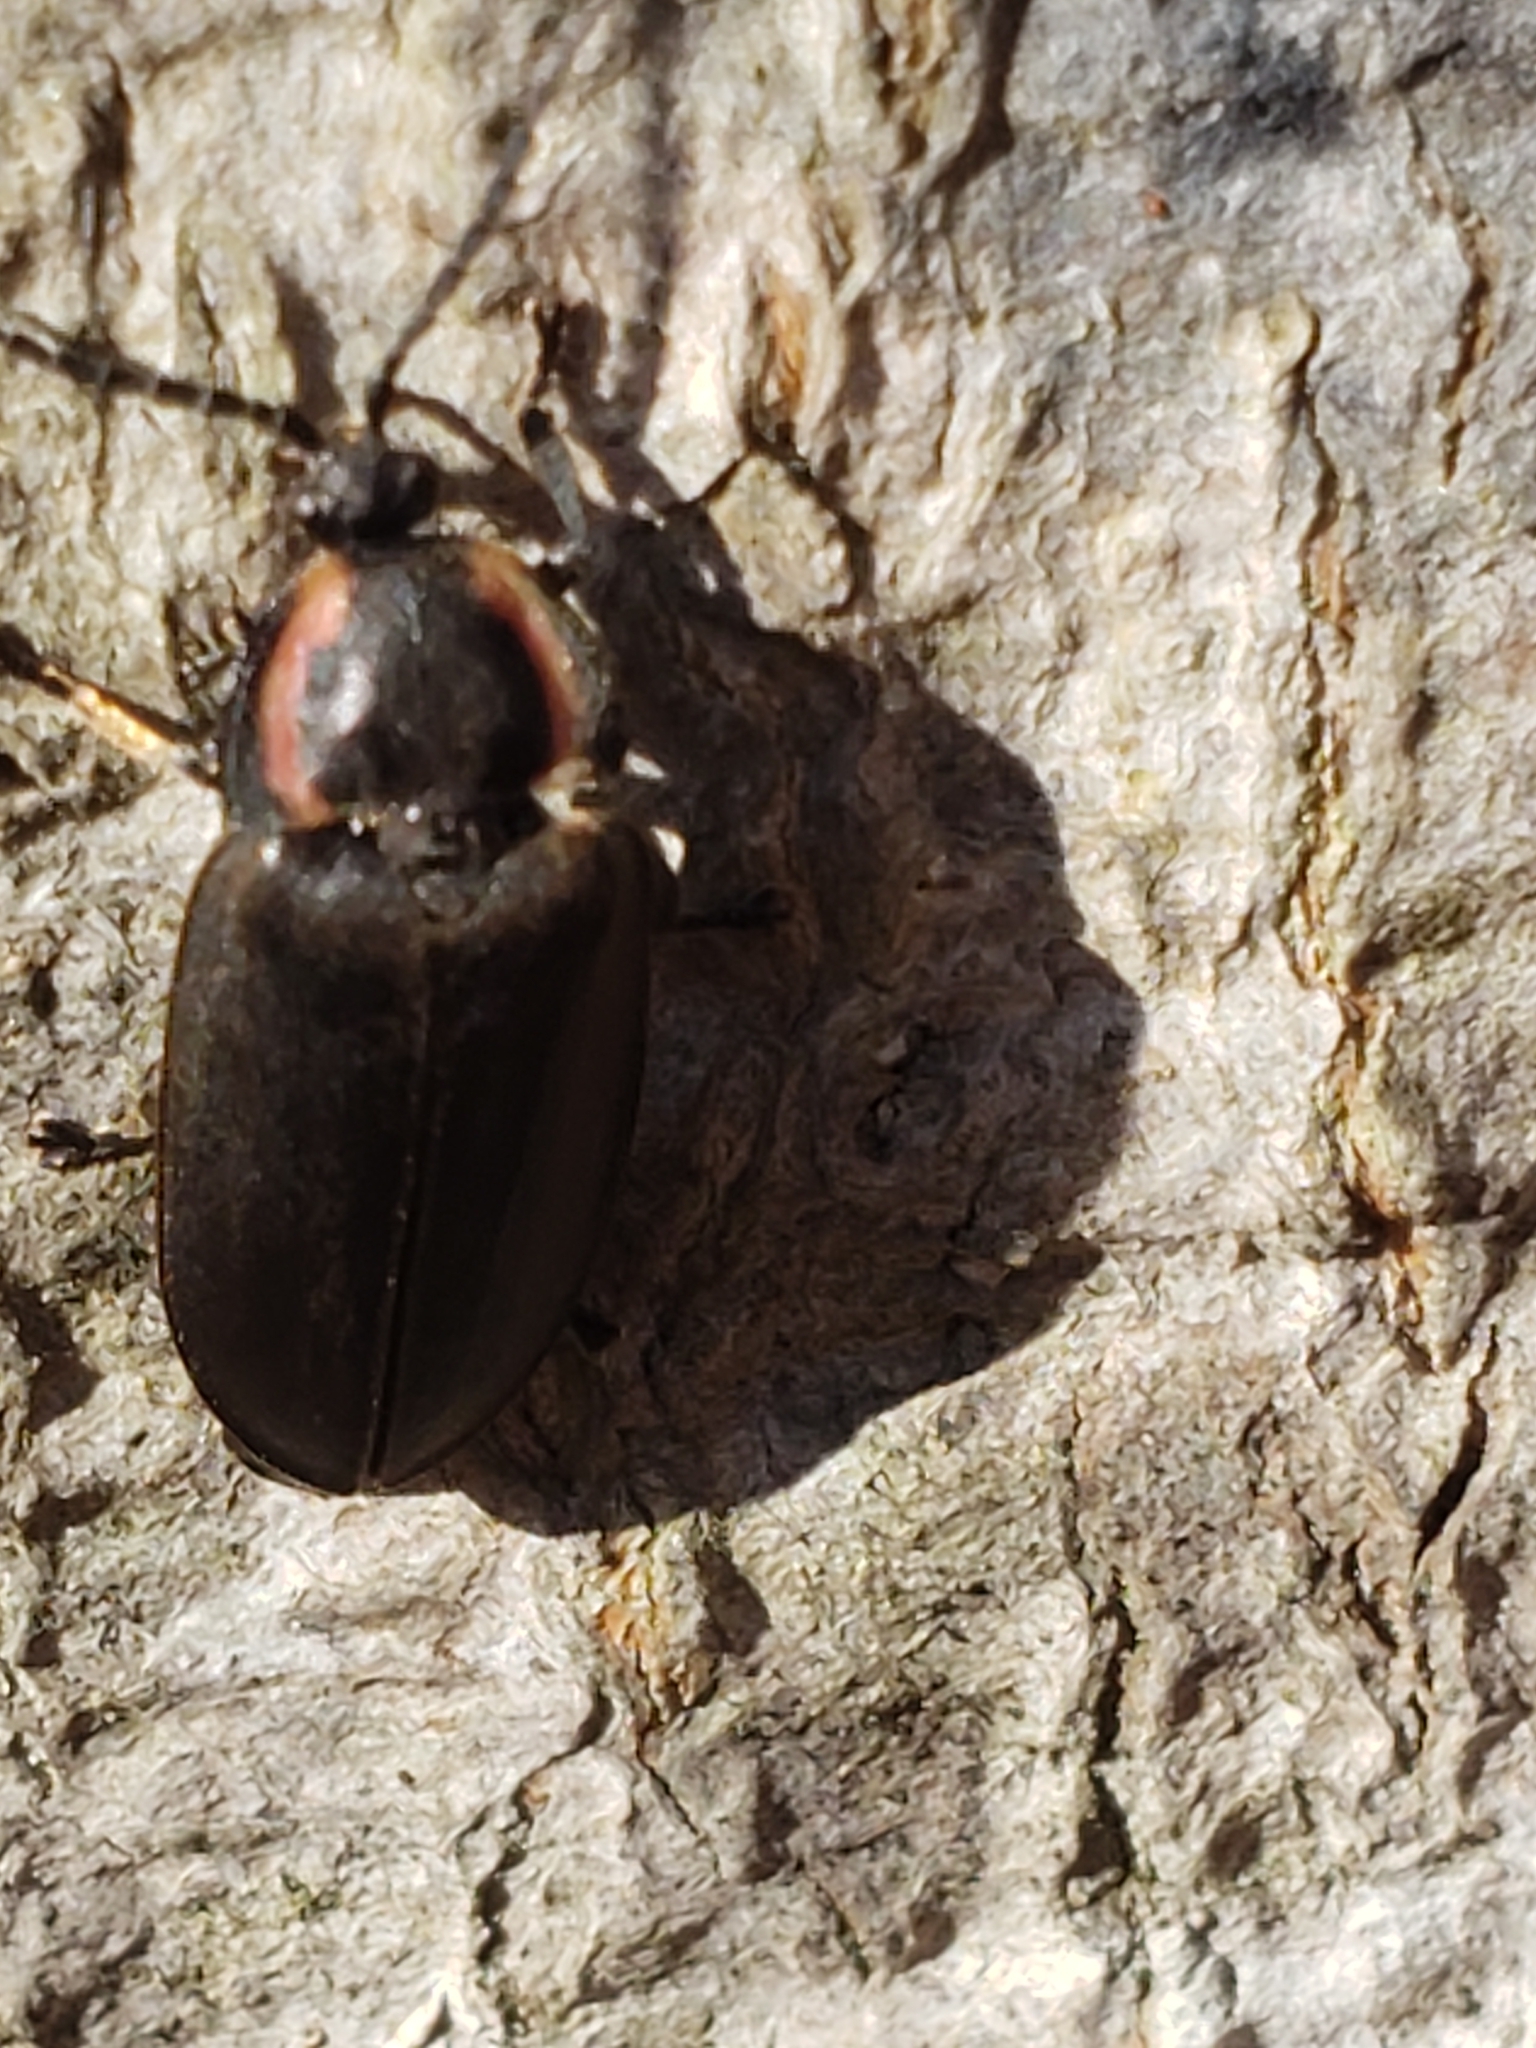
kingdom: Animalia
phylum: Arthropoda
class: Insecta
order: Coleoptera
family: Lampyridae
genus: Photinus
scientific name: Photinus corrusca
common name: Winter firefly
